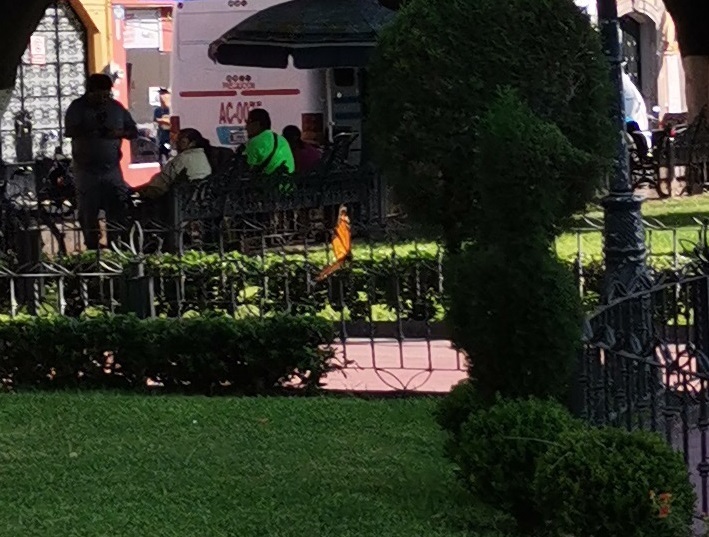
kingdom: Animalia
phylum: Arthropoda
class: Insecta
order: Lepidoptera
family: Nymphalidae
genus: Danaus
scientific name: Danaus plexippus
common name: Monarch
